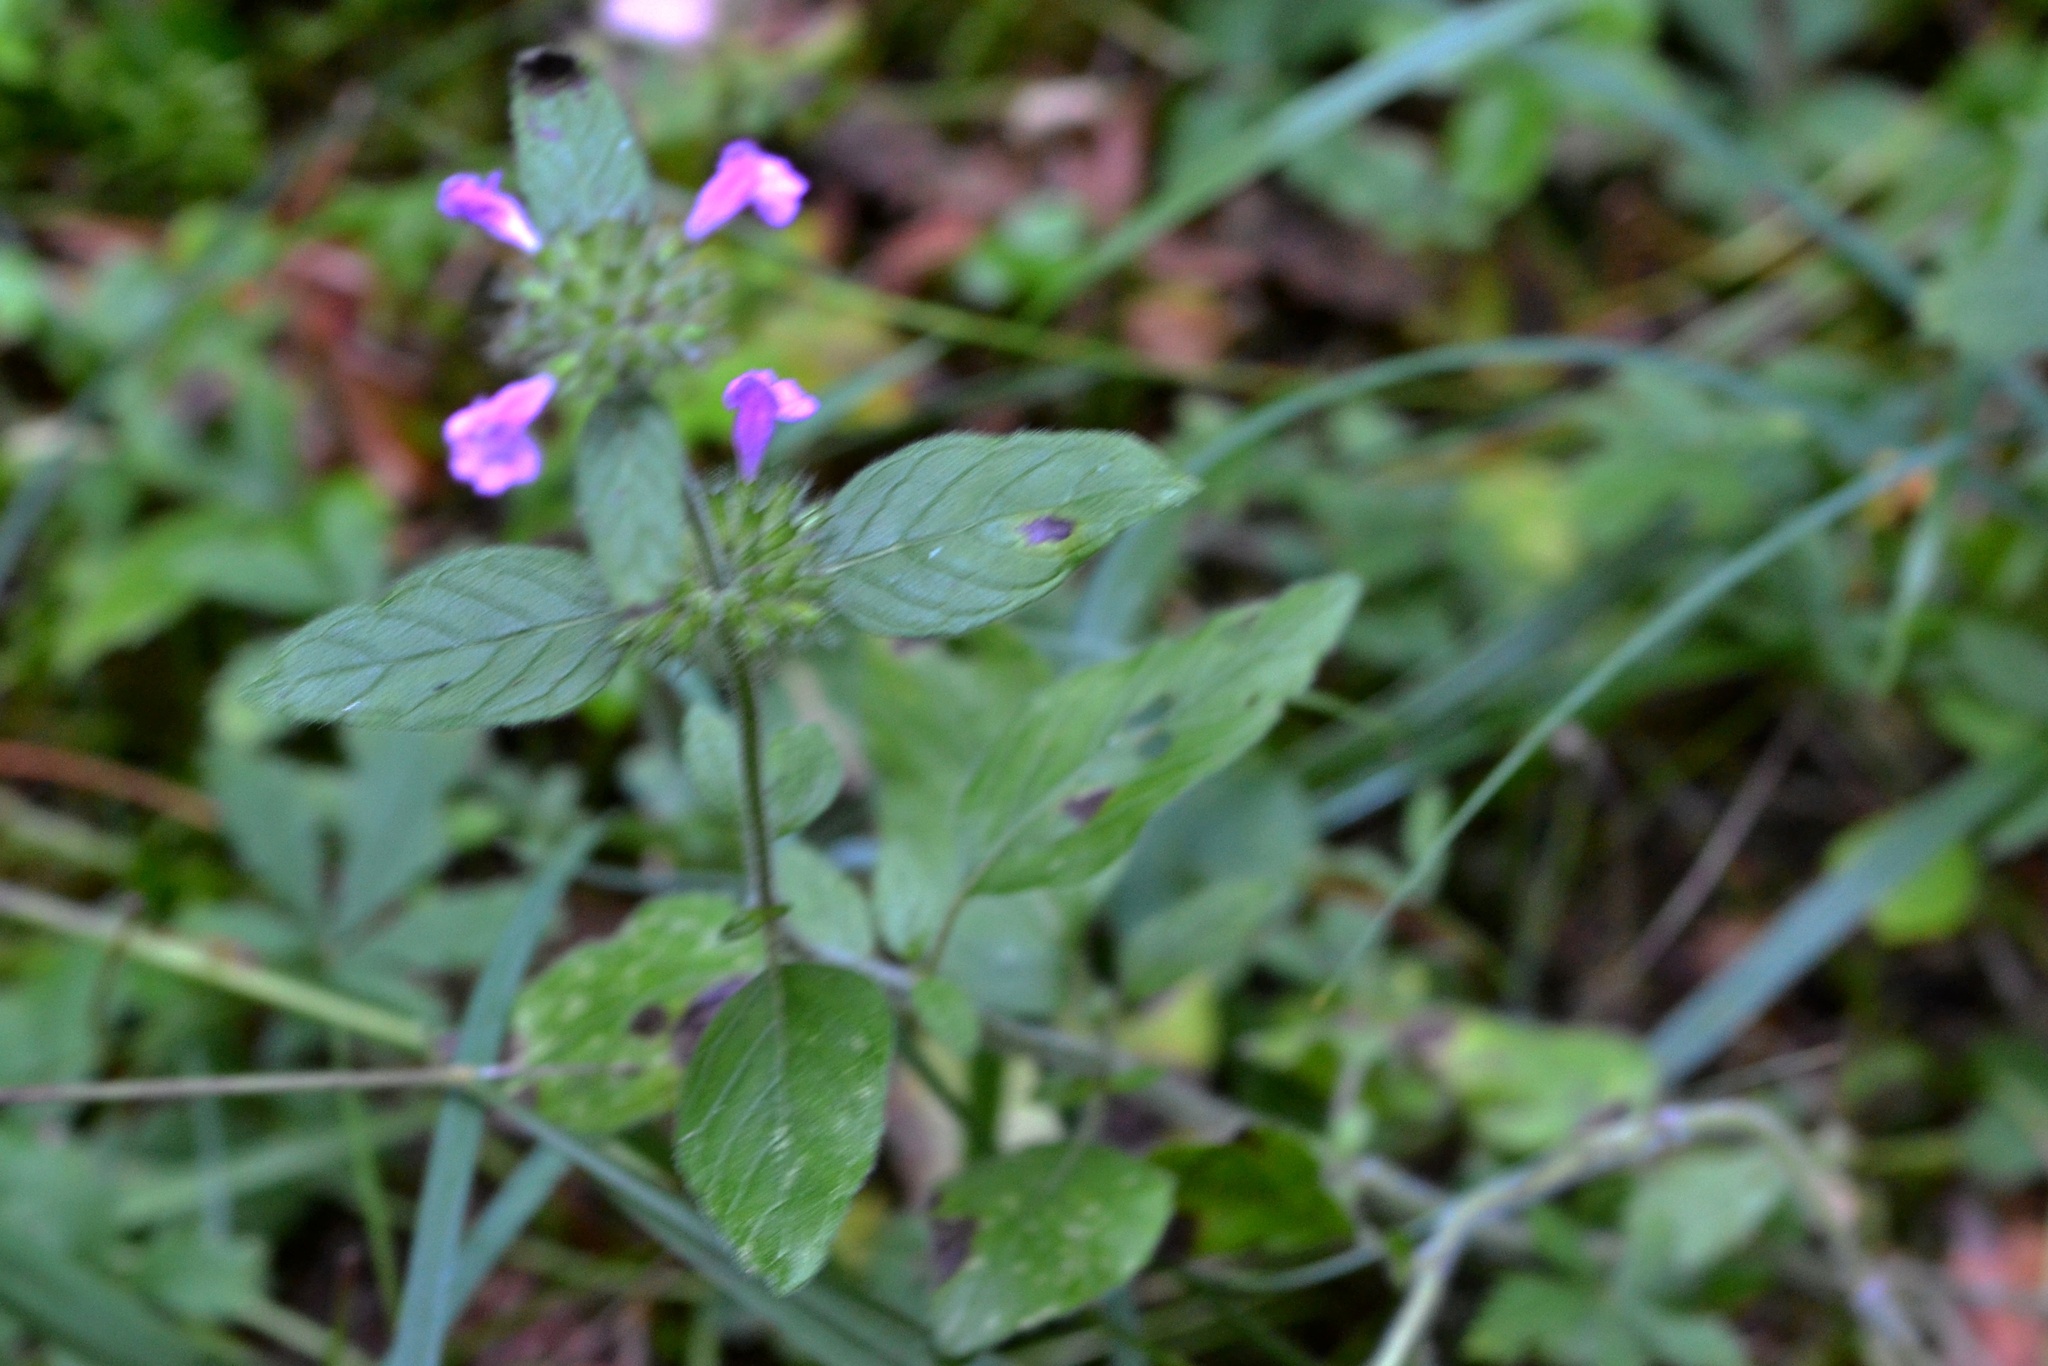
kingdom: Plantae
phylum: Tracheophyta
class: Magnoliopsida
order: Lamiales
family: Lamiaceae
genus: Clinopodium
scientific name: Clinopodium vulgare
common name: Wild basil
